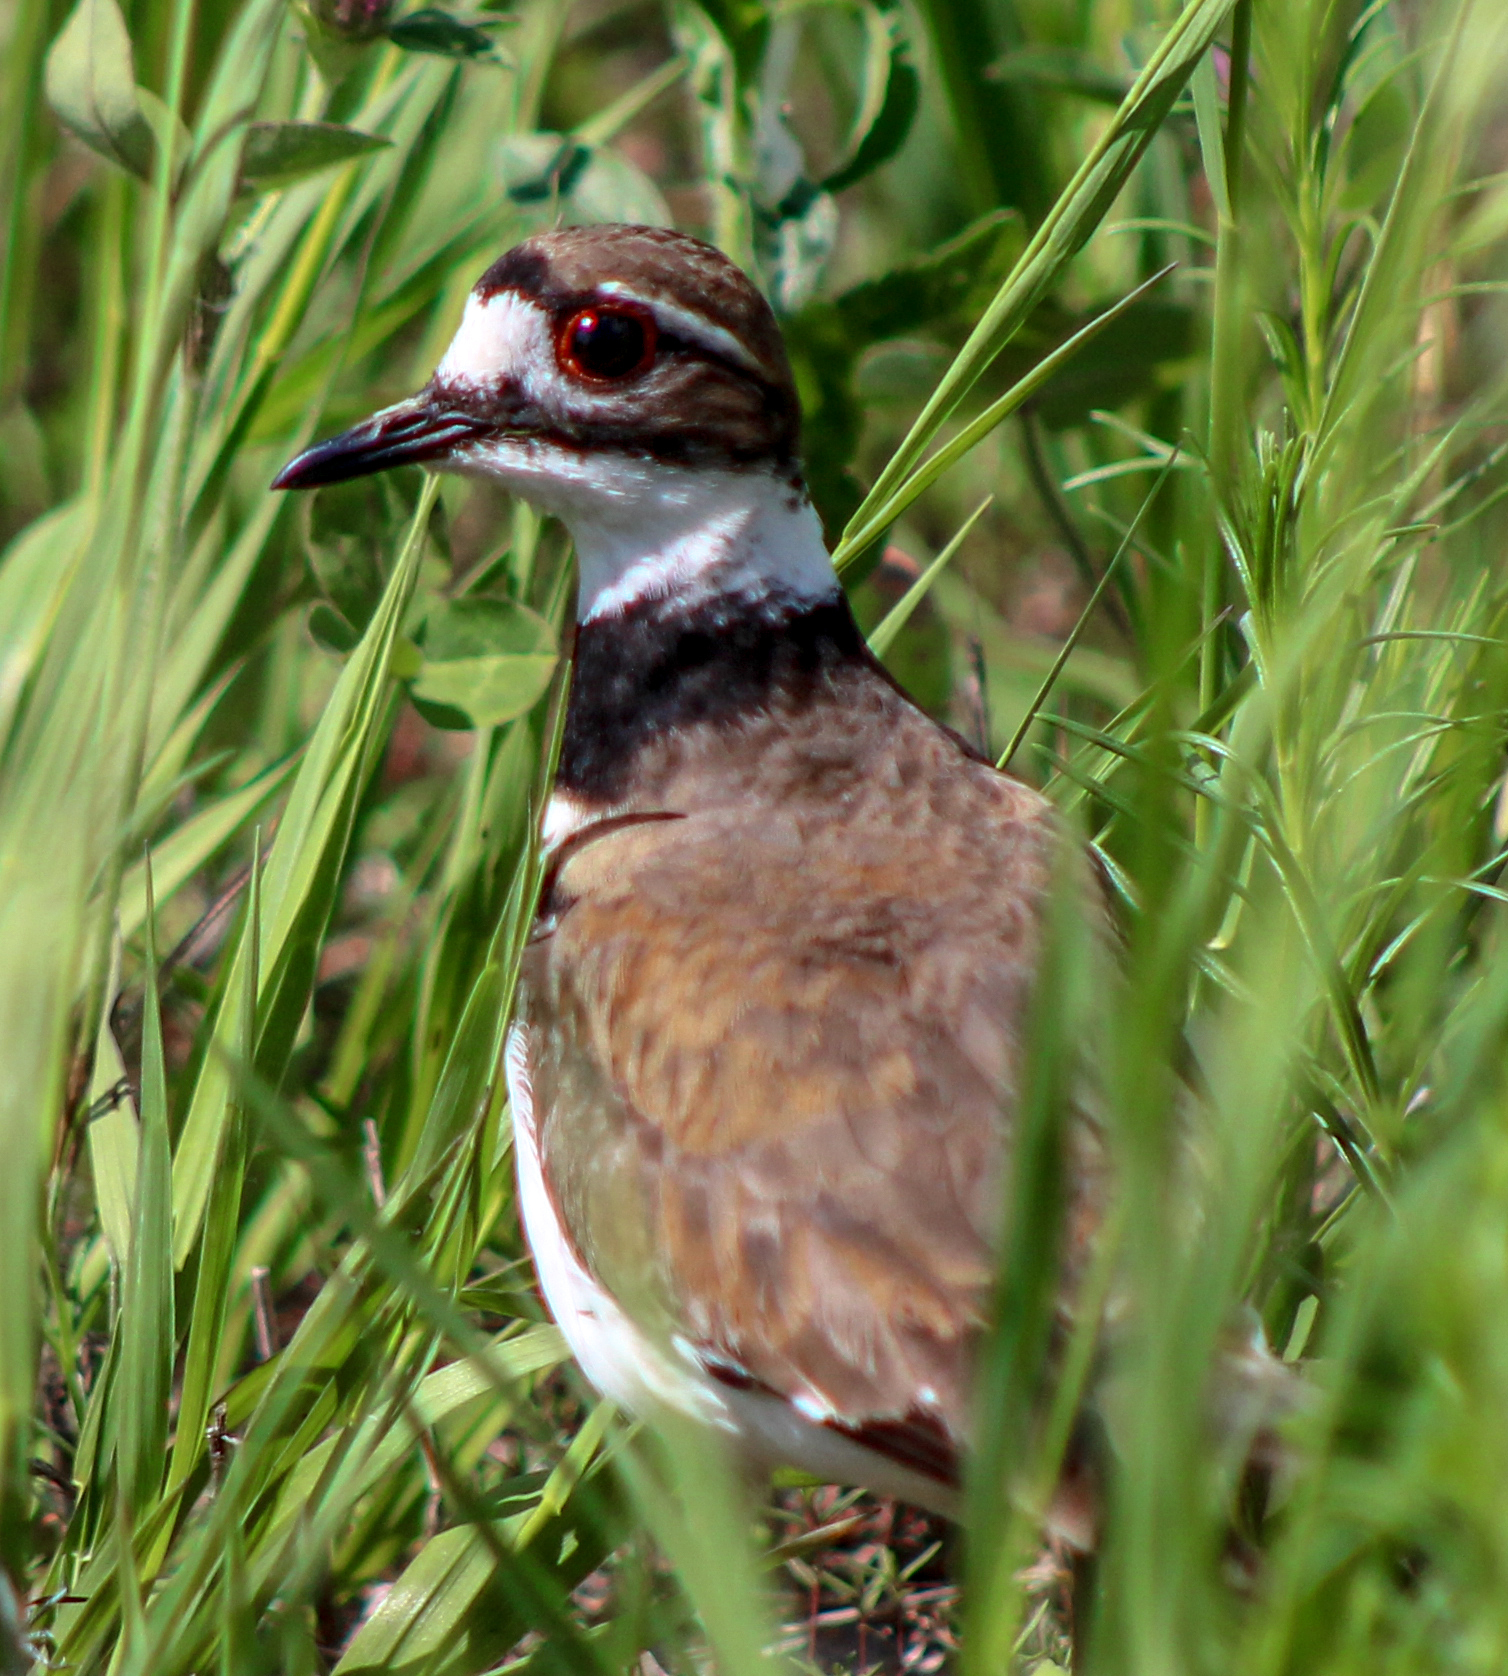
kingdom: Animalia
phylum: Chordata
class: Aves
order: Charadriiformes
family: Charadriidae
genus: Charadrius
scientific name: Charadrius vociferus
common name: Killdeer
